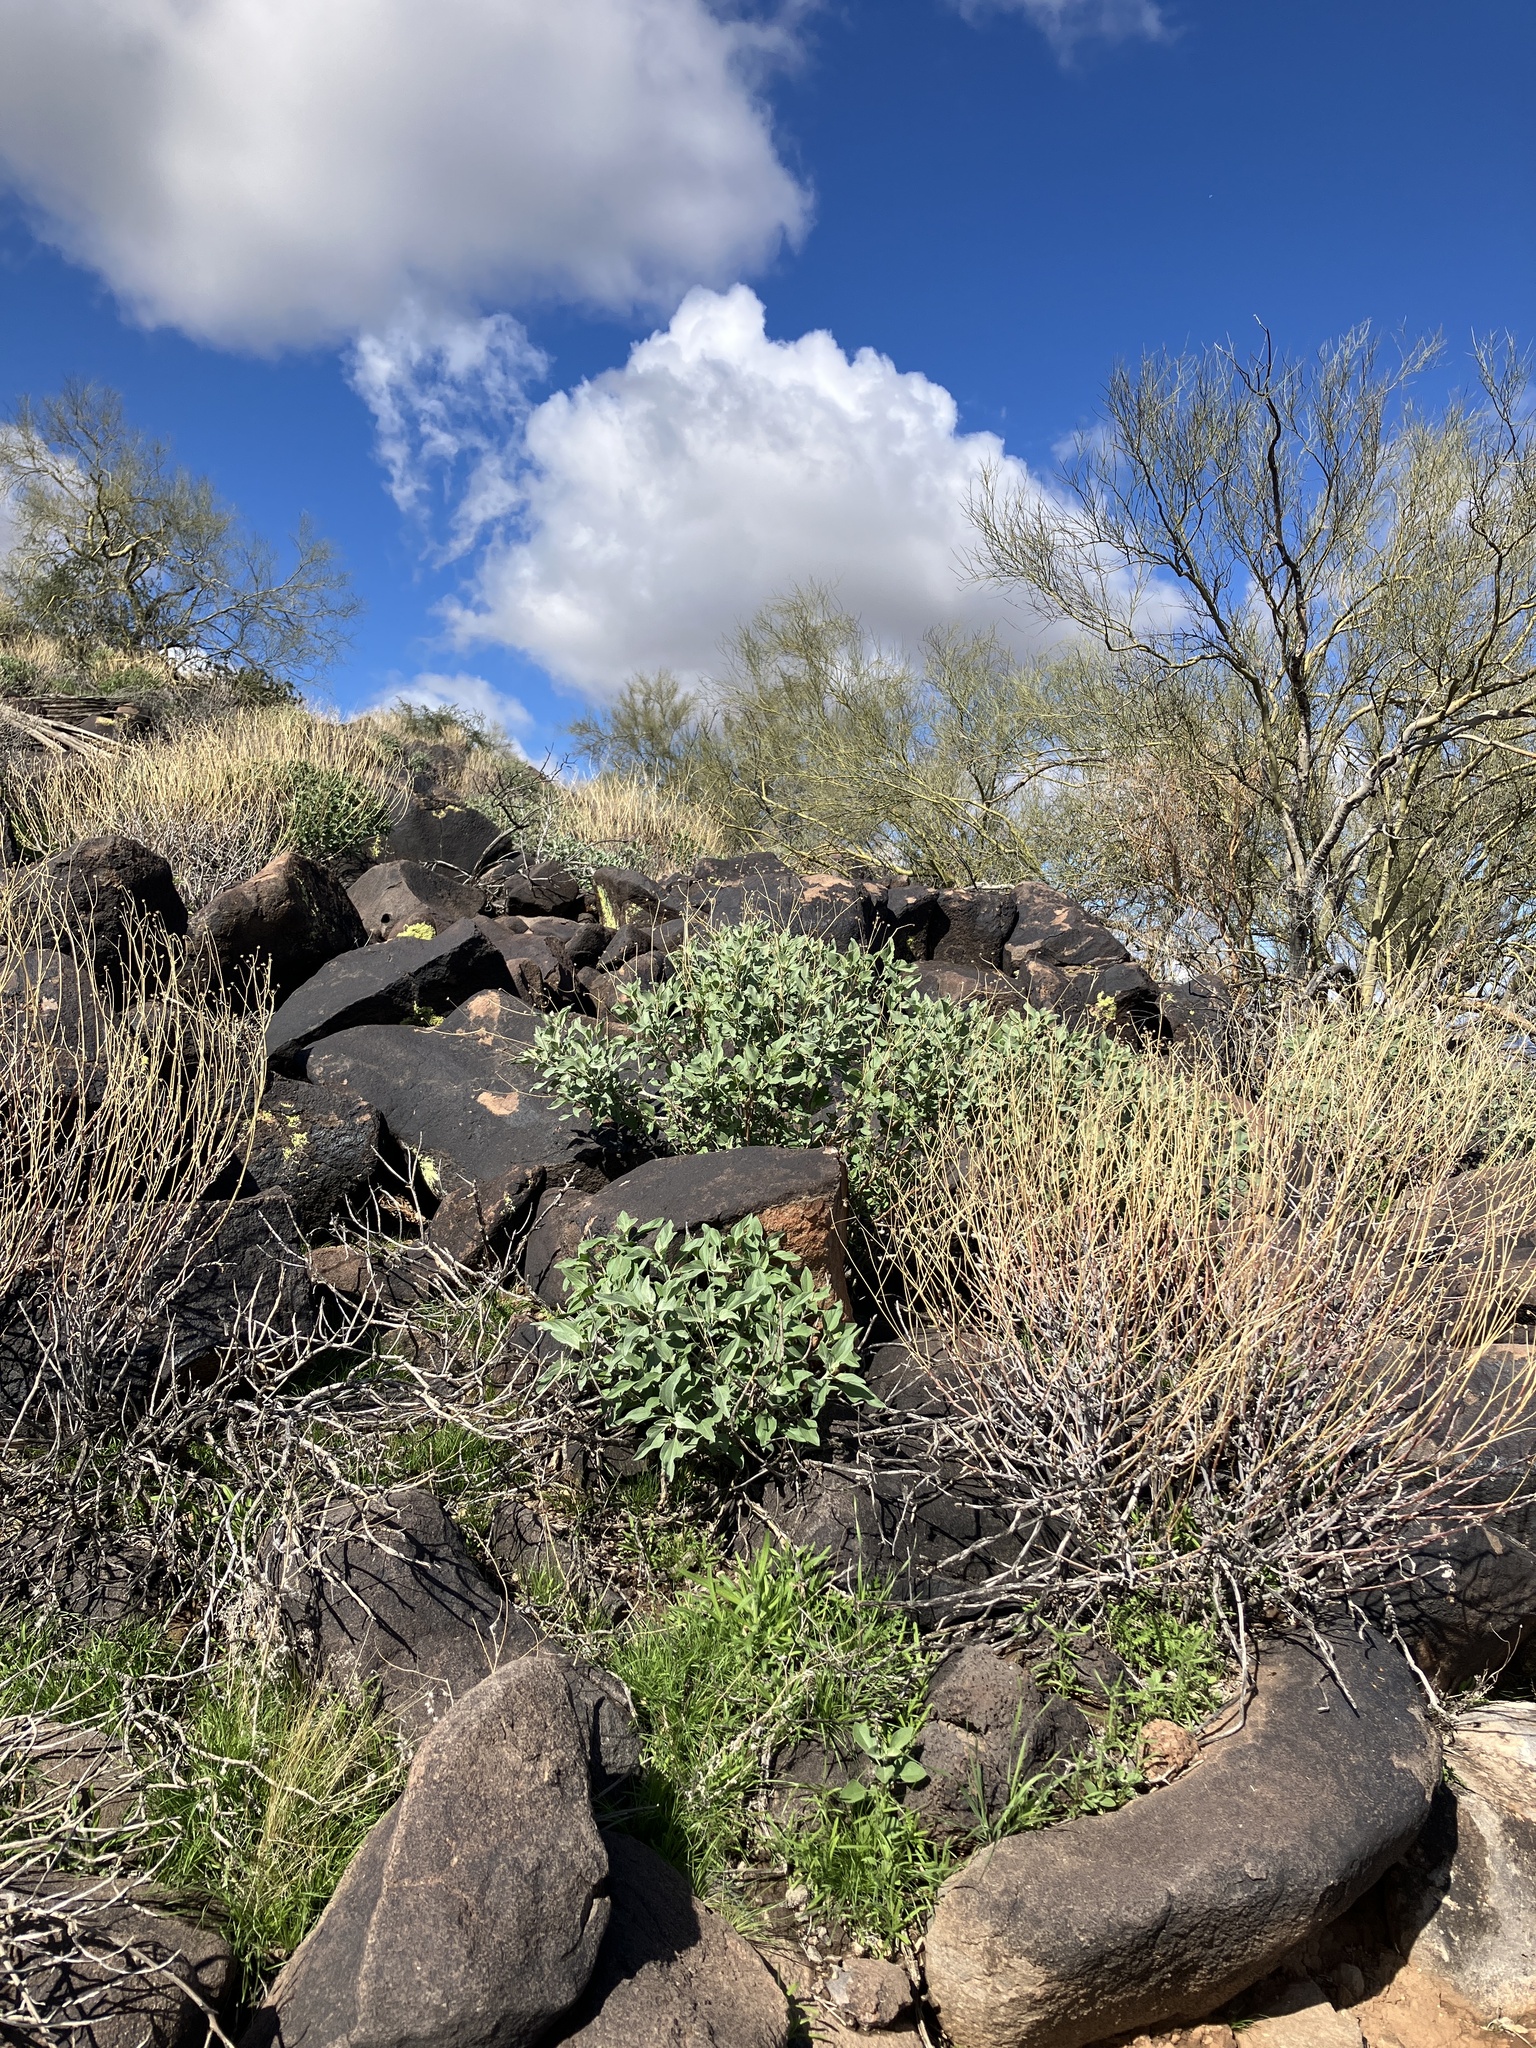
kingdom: Plantae
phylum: Tracheophyta
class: Magnoliopsida
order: Asterales
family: Asteraceae
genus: Encelia
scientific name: Encelia farinosa
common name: Brittlebush
